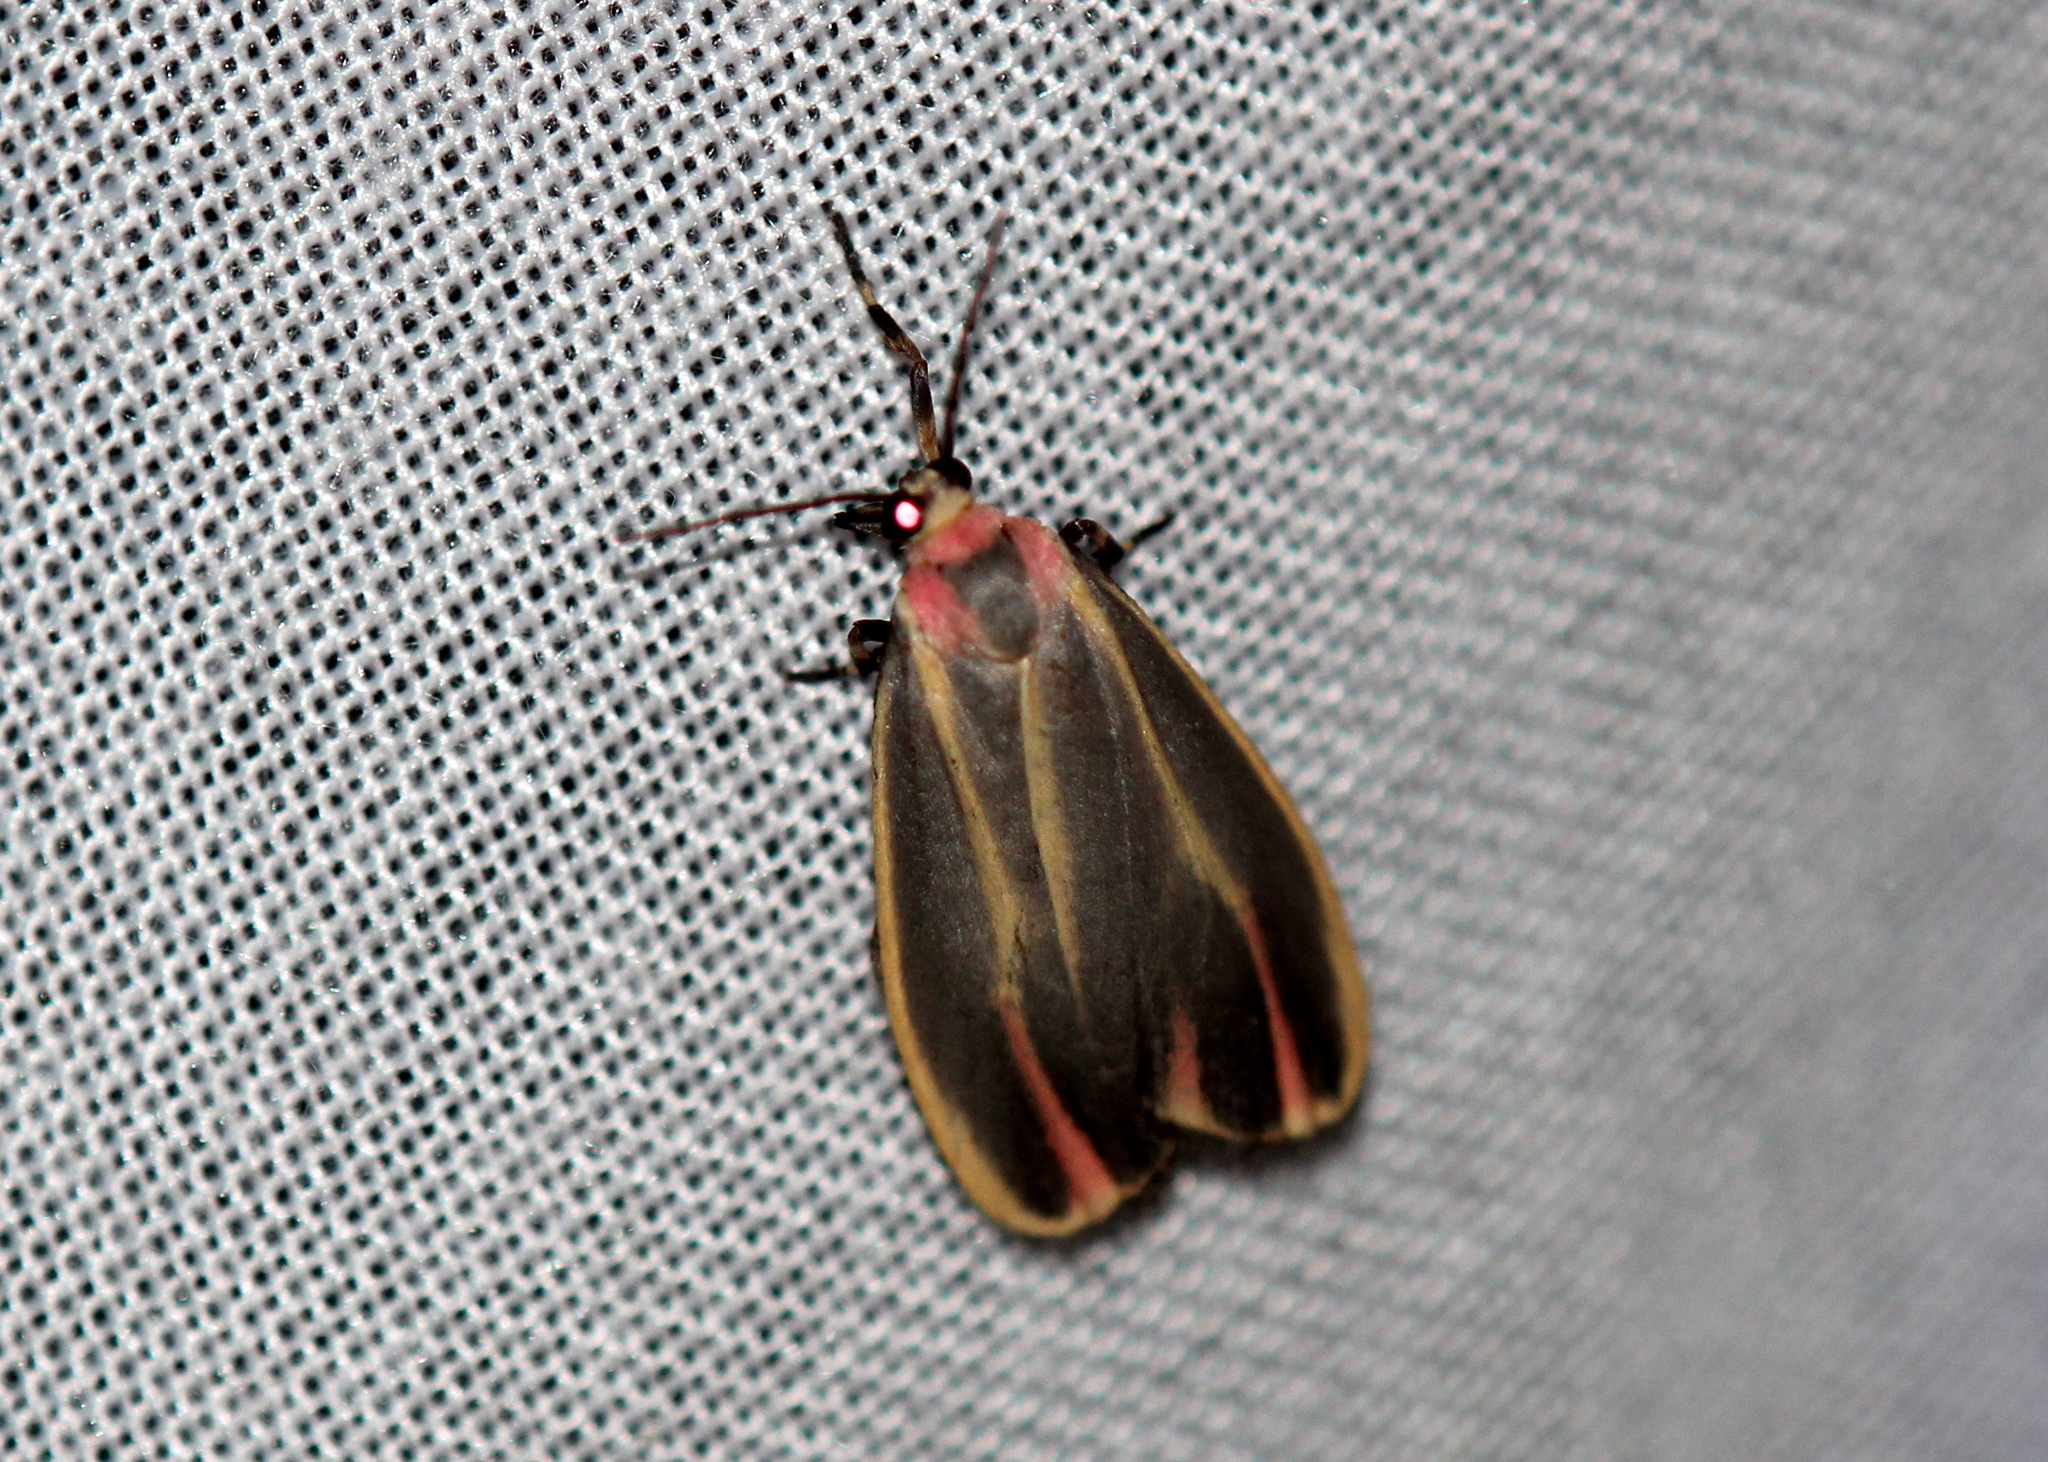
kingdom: Animalia
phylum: Arthropoda
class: Insecta
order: Lepidoptera
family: Erebidae
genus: Hypoprepia
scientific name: Hypoprepia fucosa
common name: Painted lichen moth
